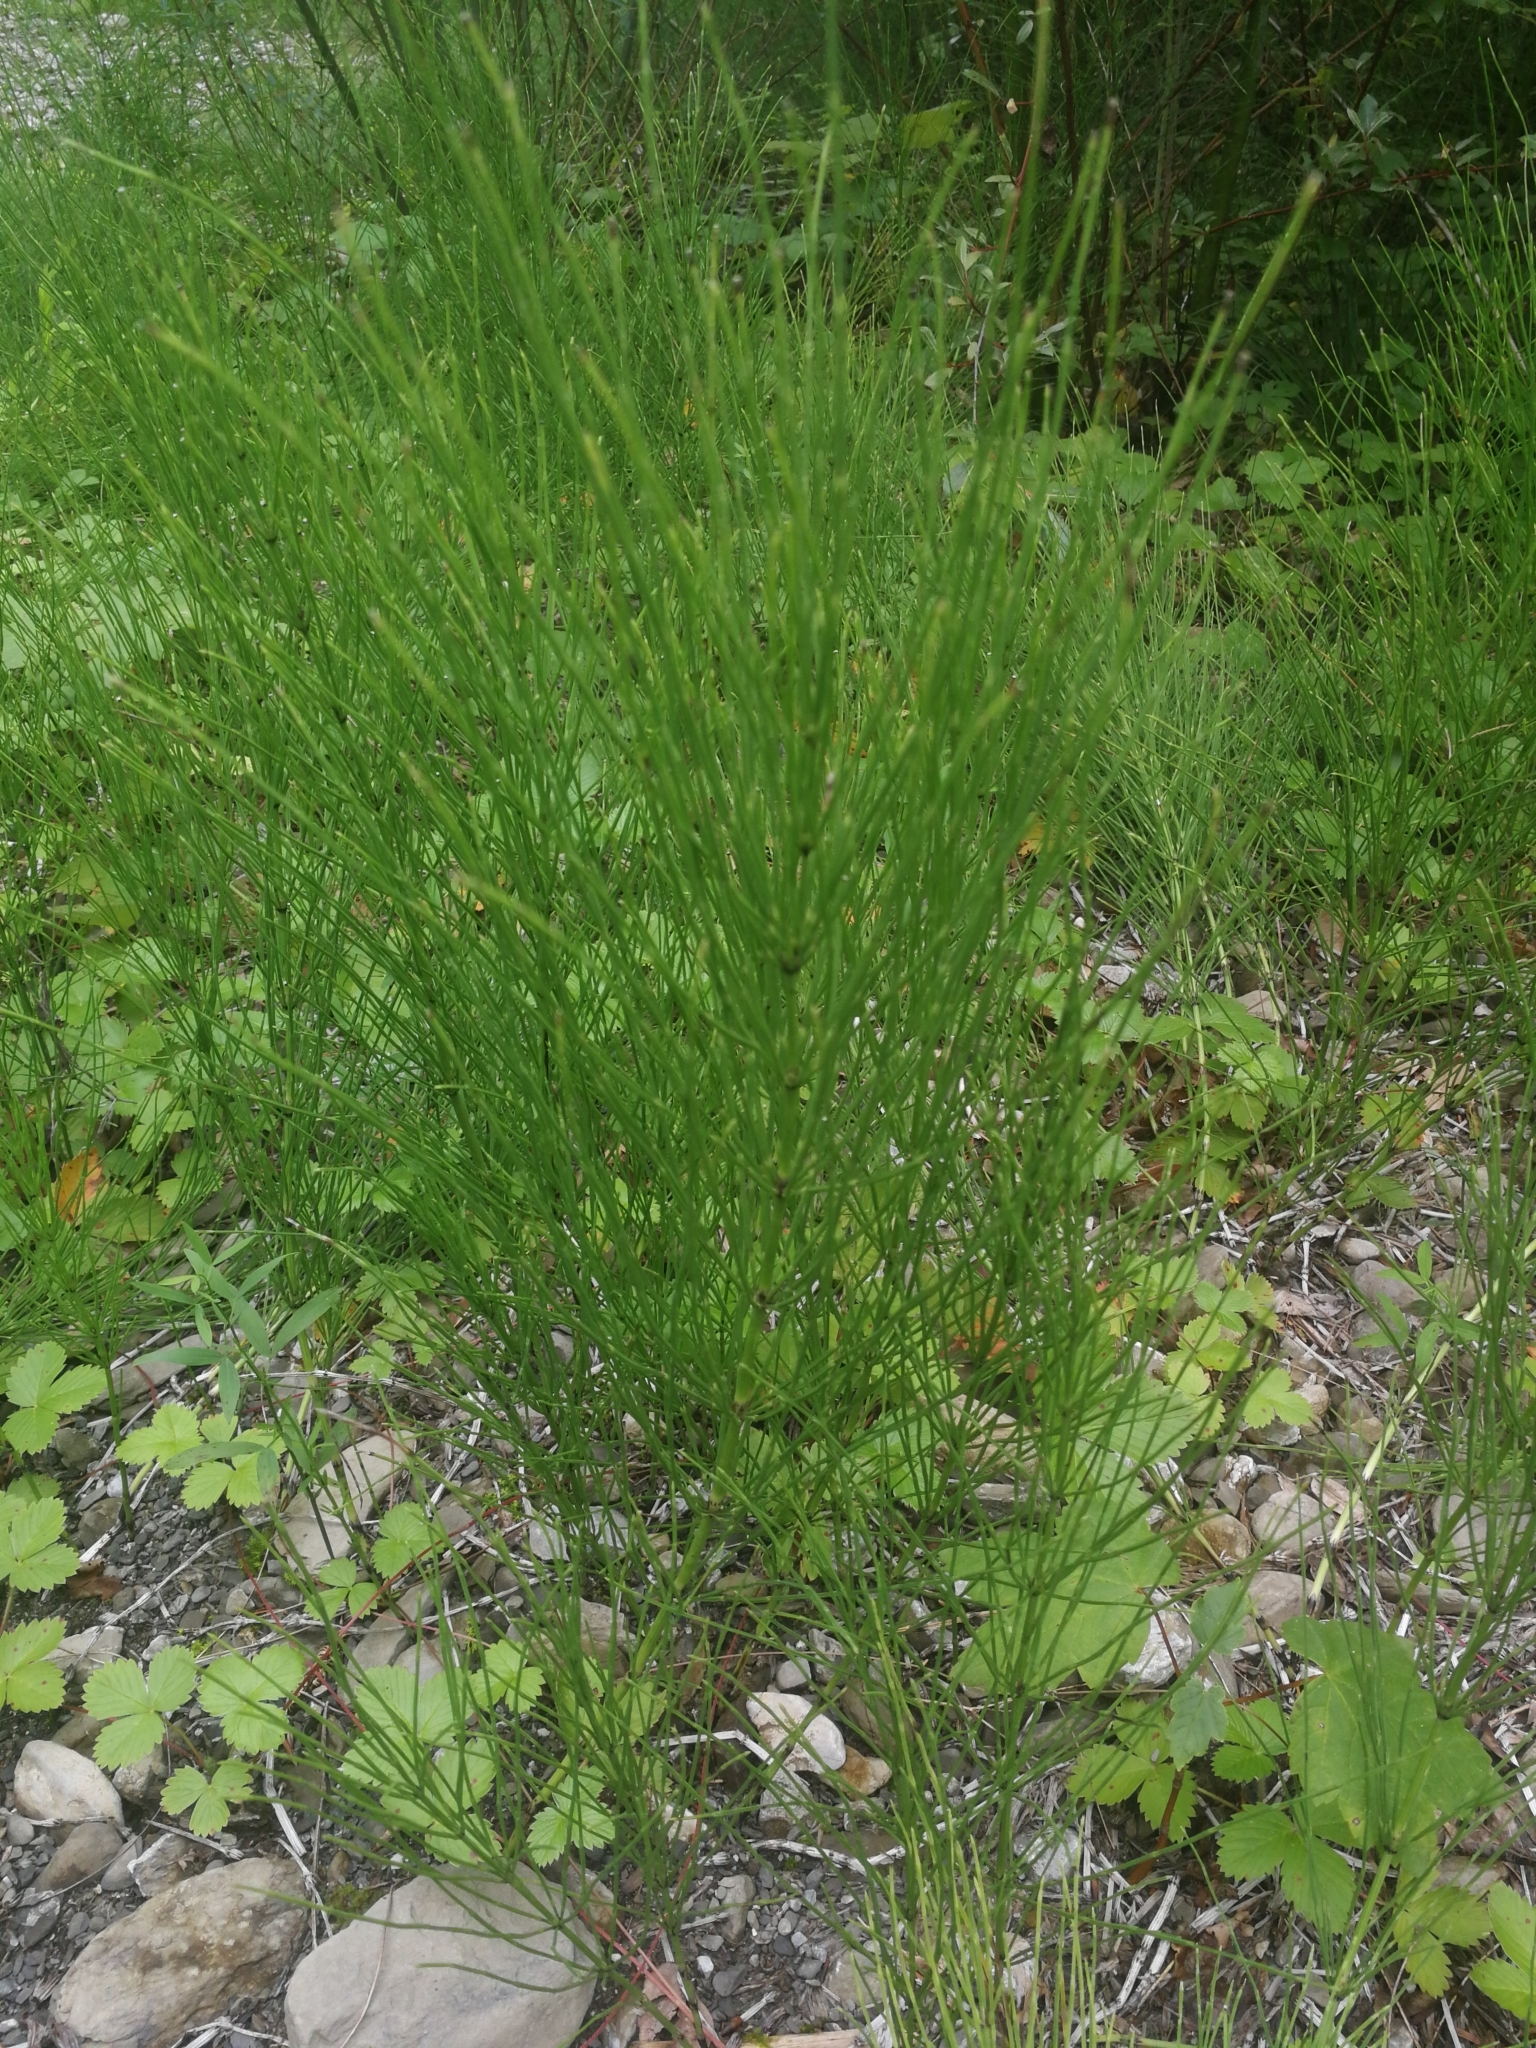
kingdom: Plantae
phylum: Tracheophyta
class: Polypodiopsida
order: Equisetales
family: Equisetaceae
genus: Equisetum
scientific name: Equisetum arvense
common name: Field horsetail
